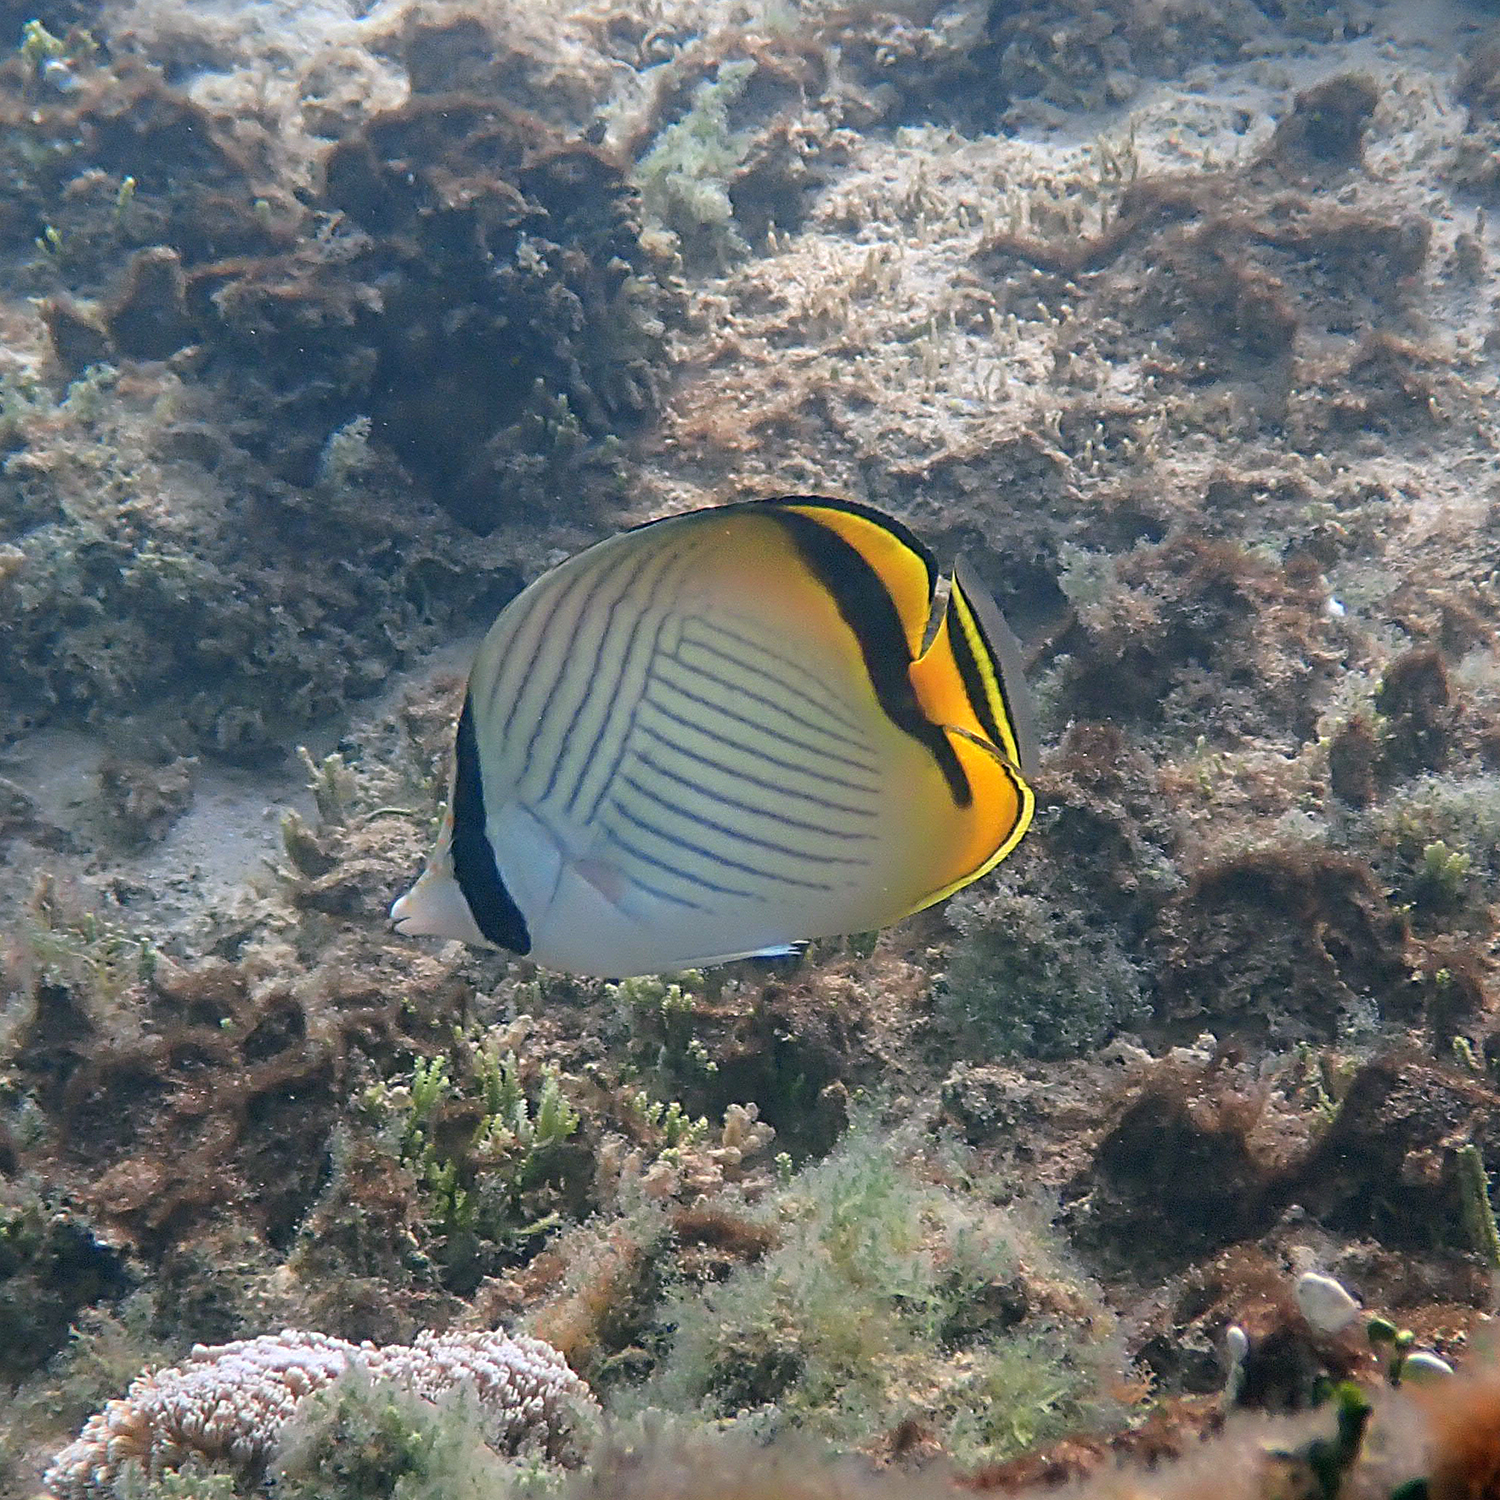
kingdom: Animalia
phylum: Chordata
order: Perciformes
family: Chaetodontidae
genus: Chaetodon
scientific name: Chaetodon vagabundus
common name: Vagabond butterflyfish
